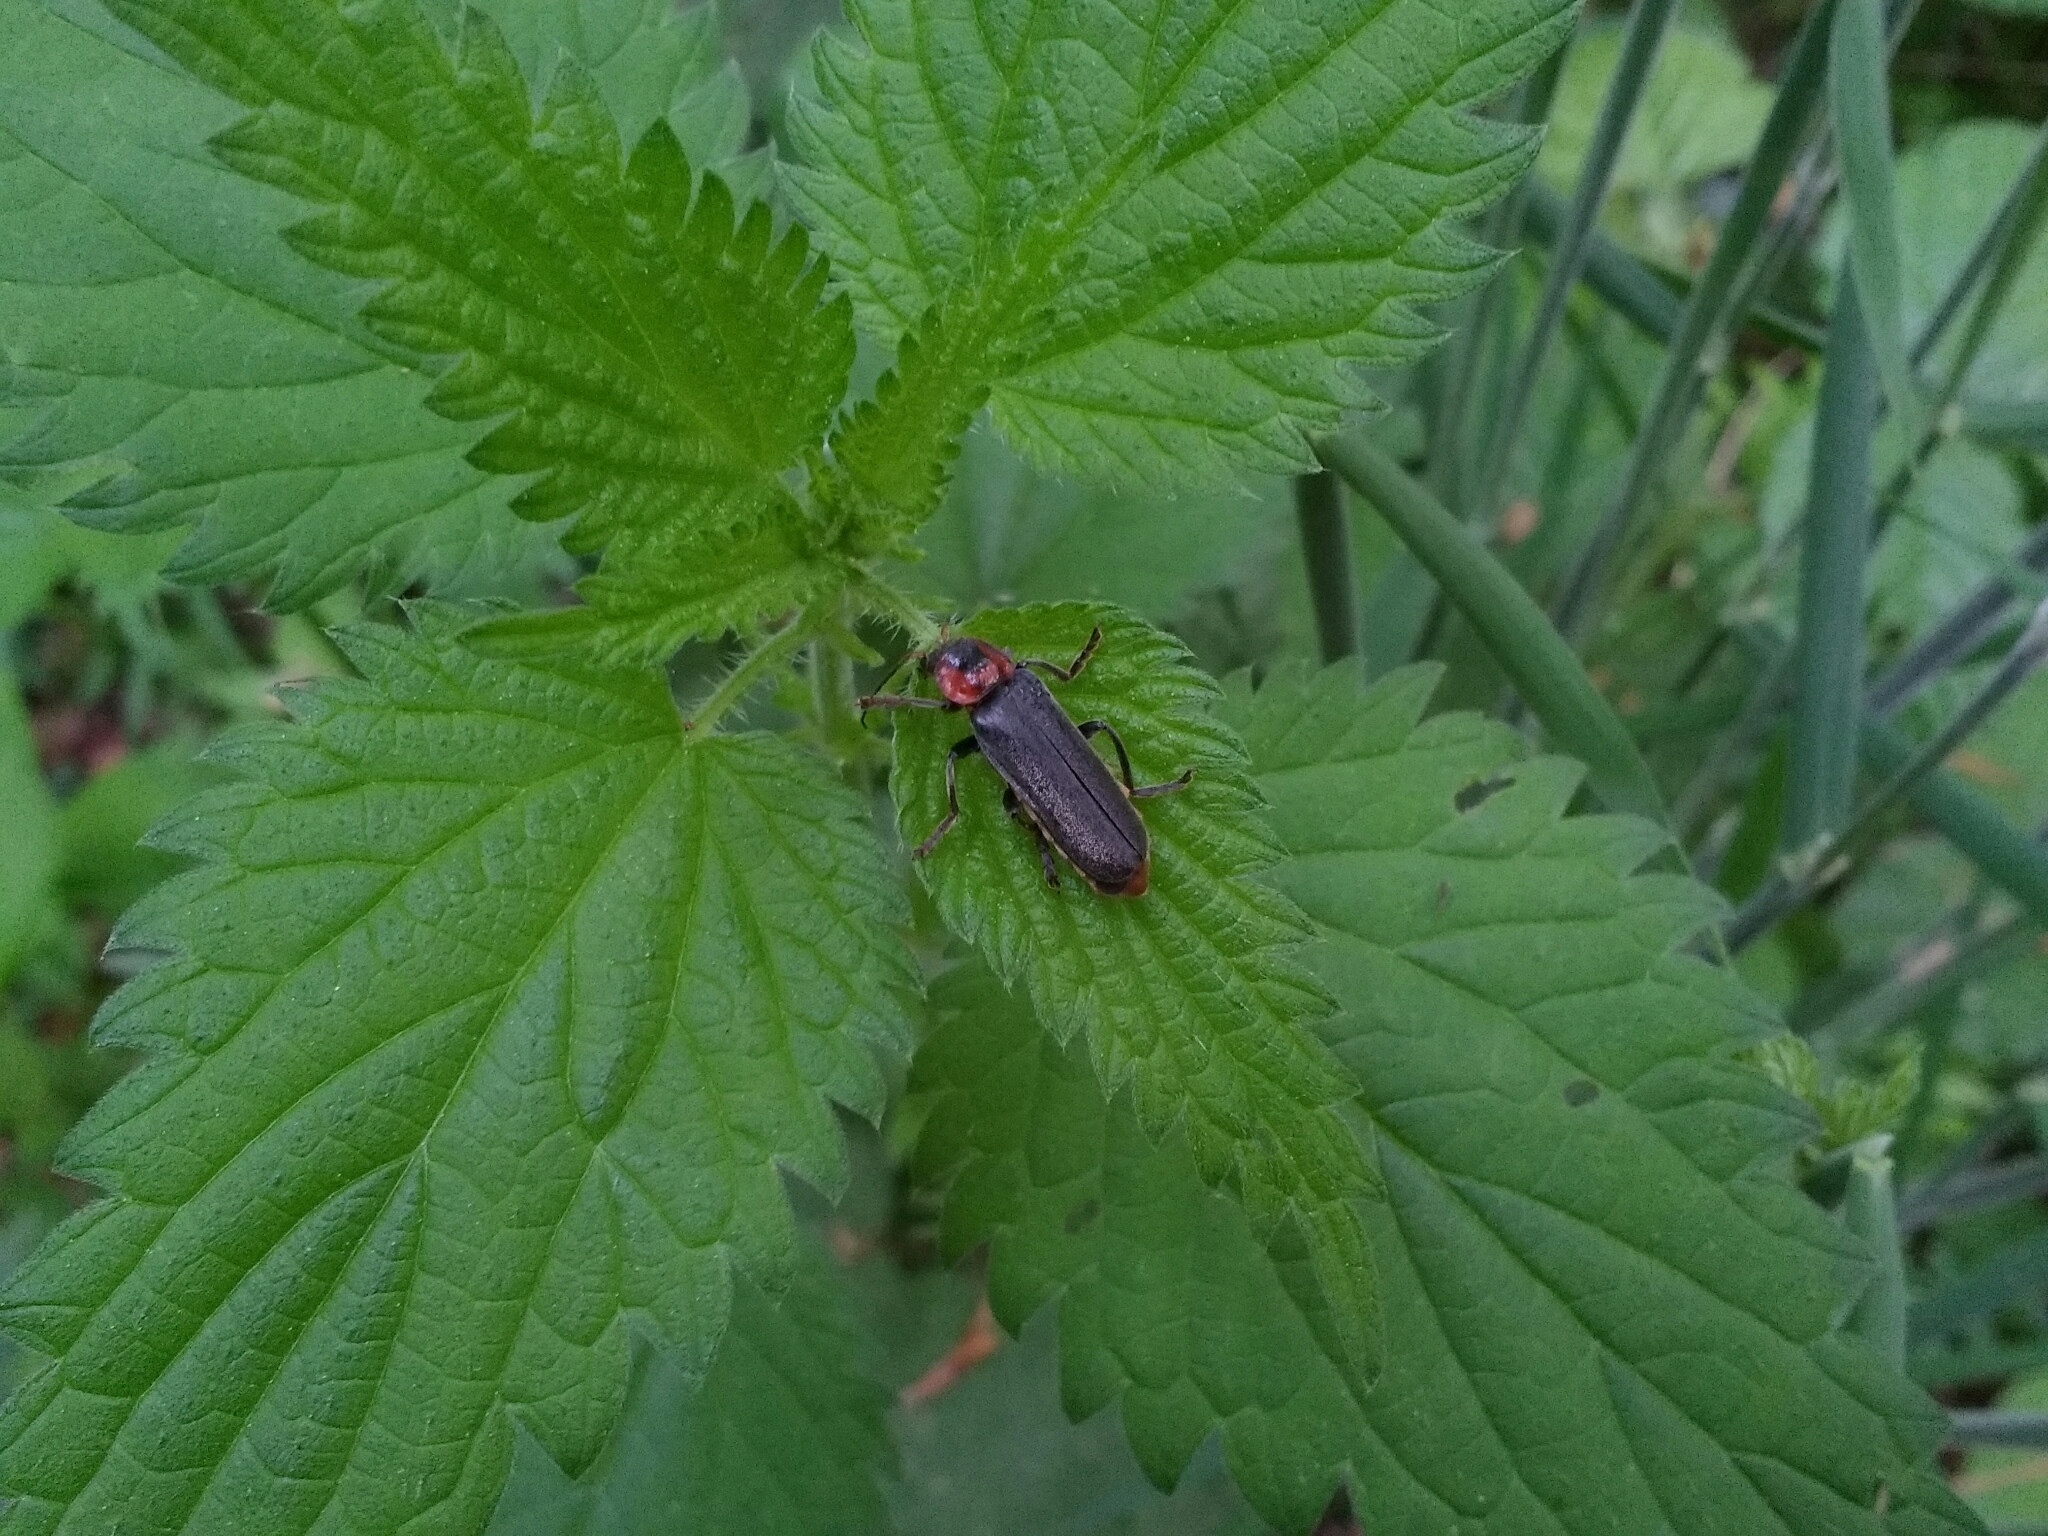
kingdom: Animalia
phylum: Arthropoda
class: Insecta
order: Coleoptera
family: Cantharidae
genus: Cantharis
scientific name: Cantharis fusca
